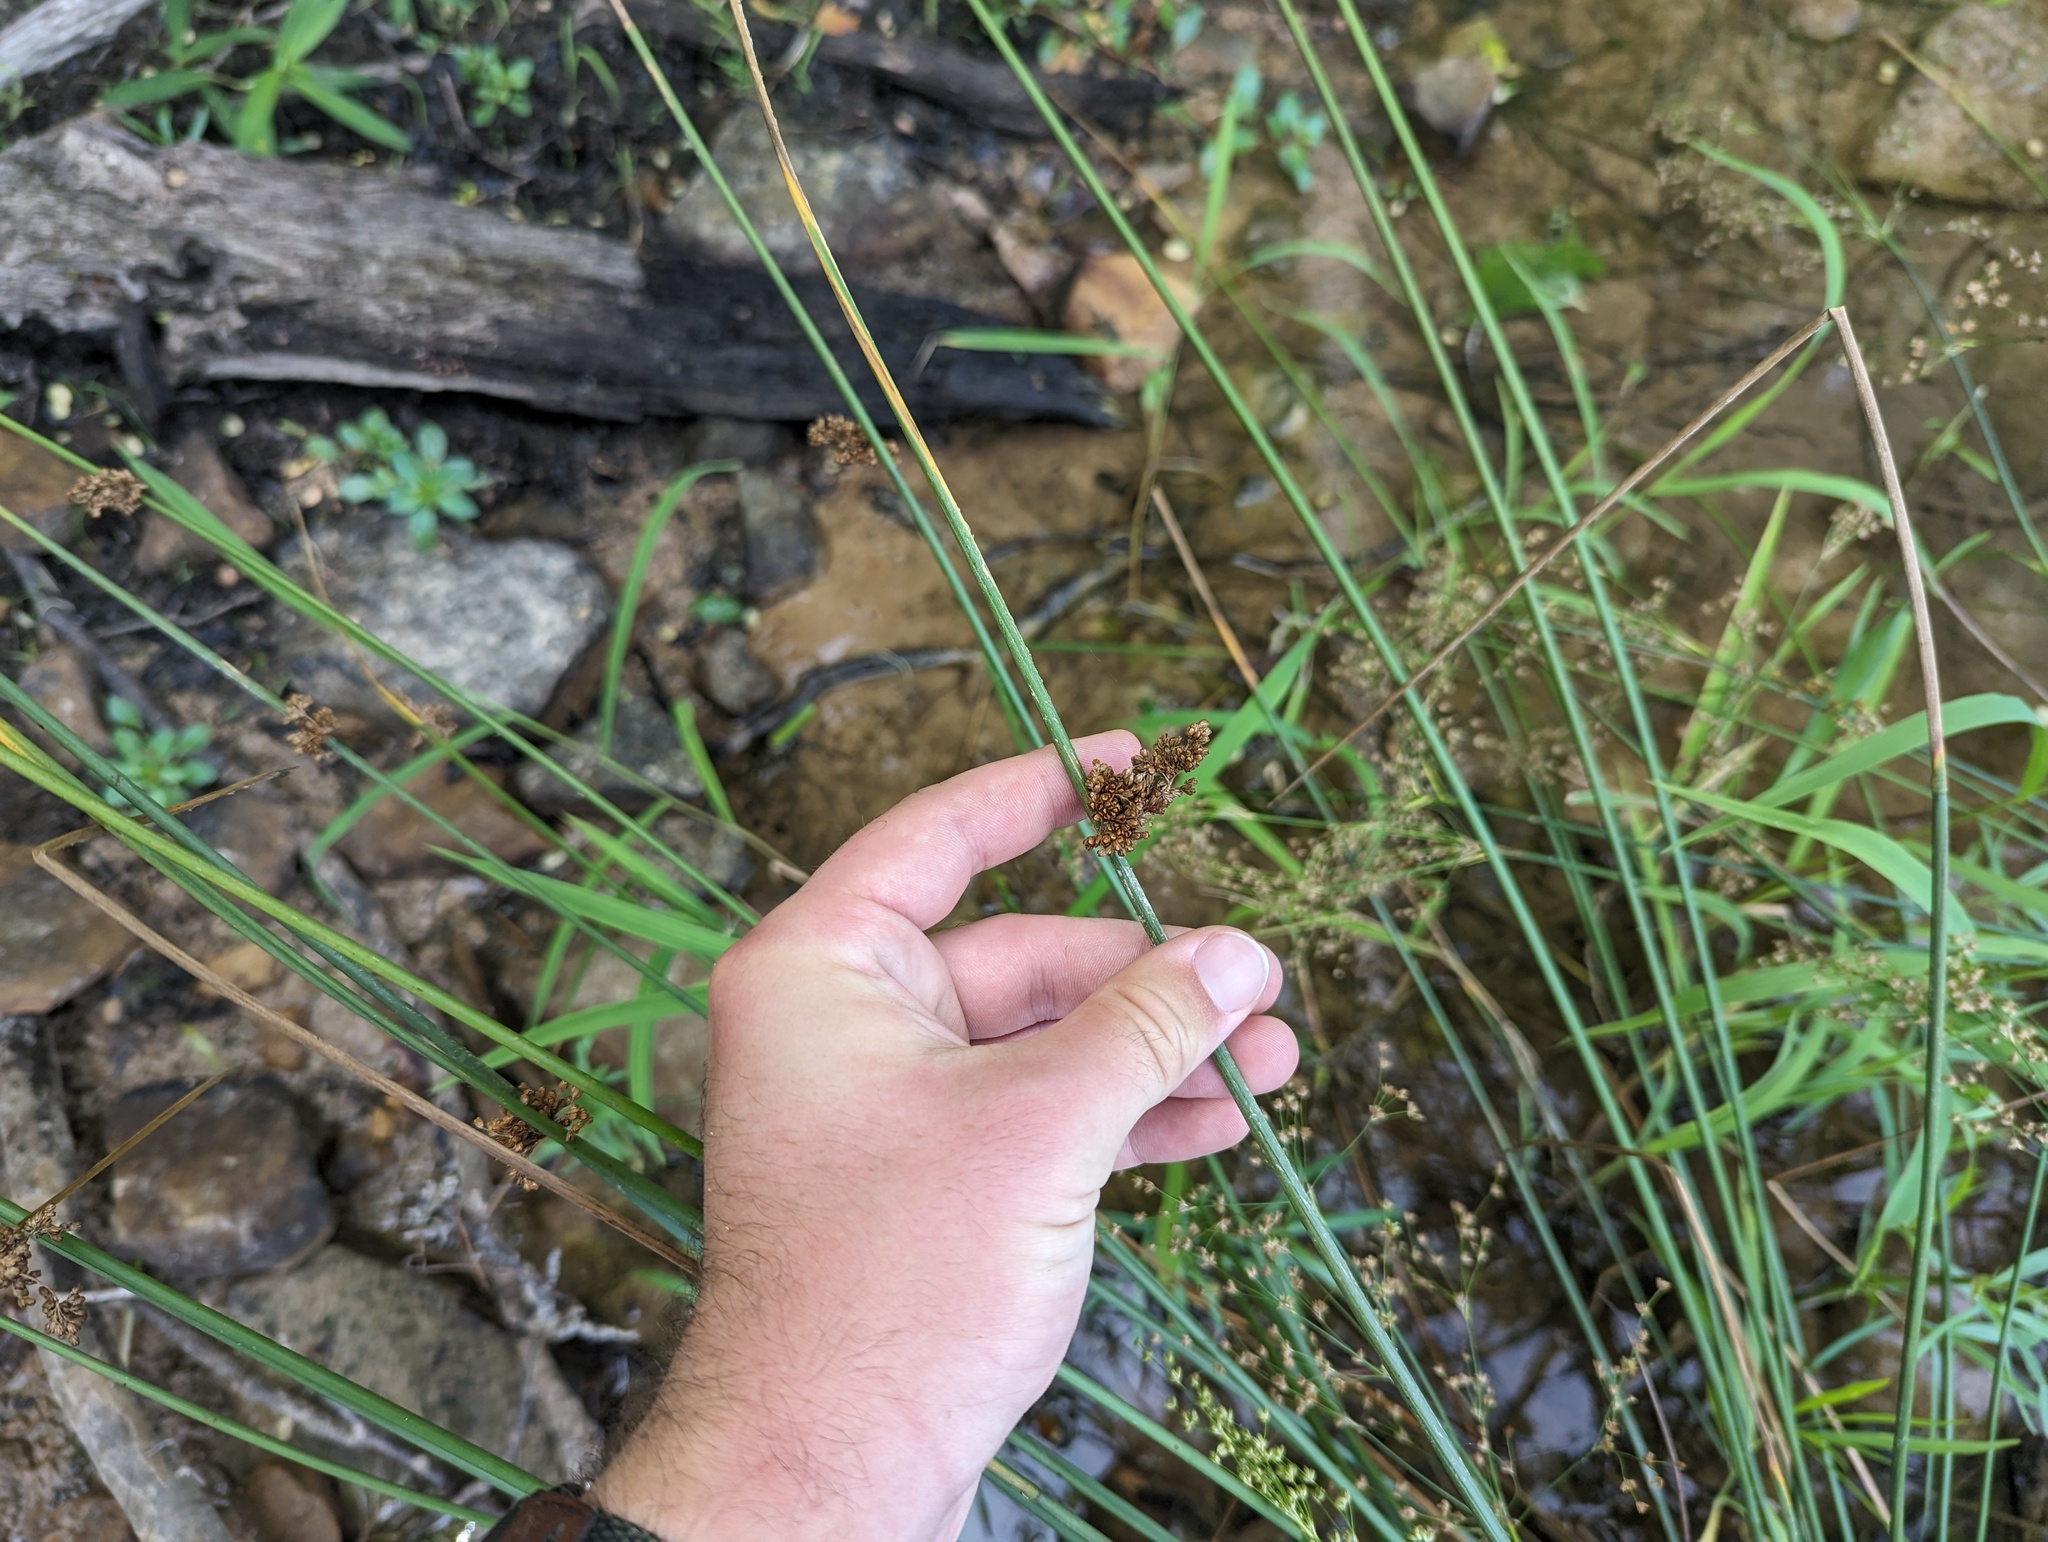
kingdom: Plantae
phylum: Tracheophyta
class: Liliopsida
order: Poales
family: Juncaceae
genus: Juncus
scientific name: Juncus effusus
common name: Soft rush
